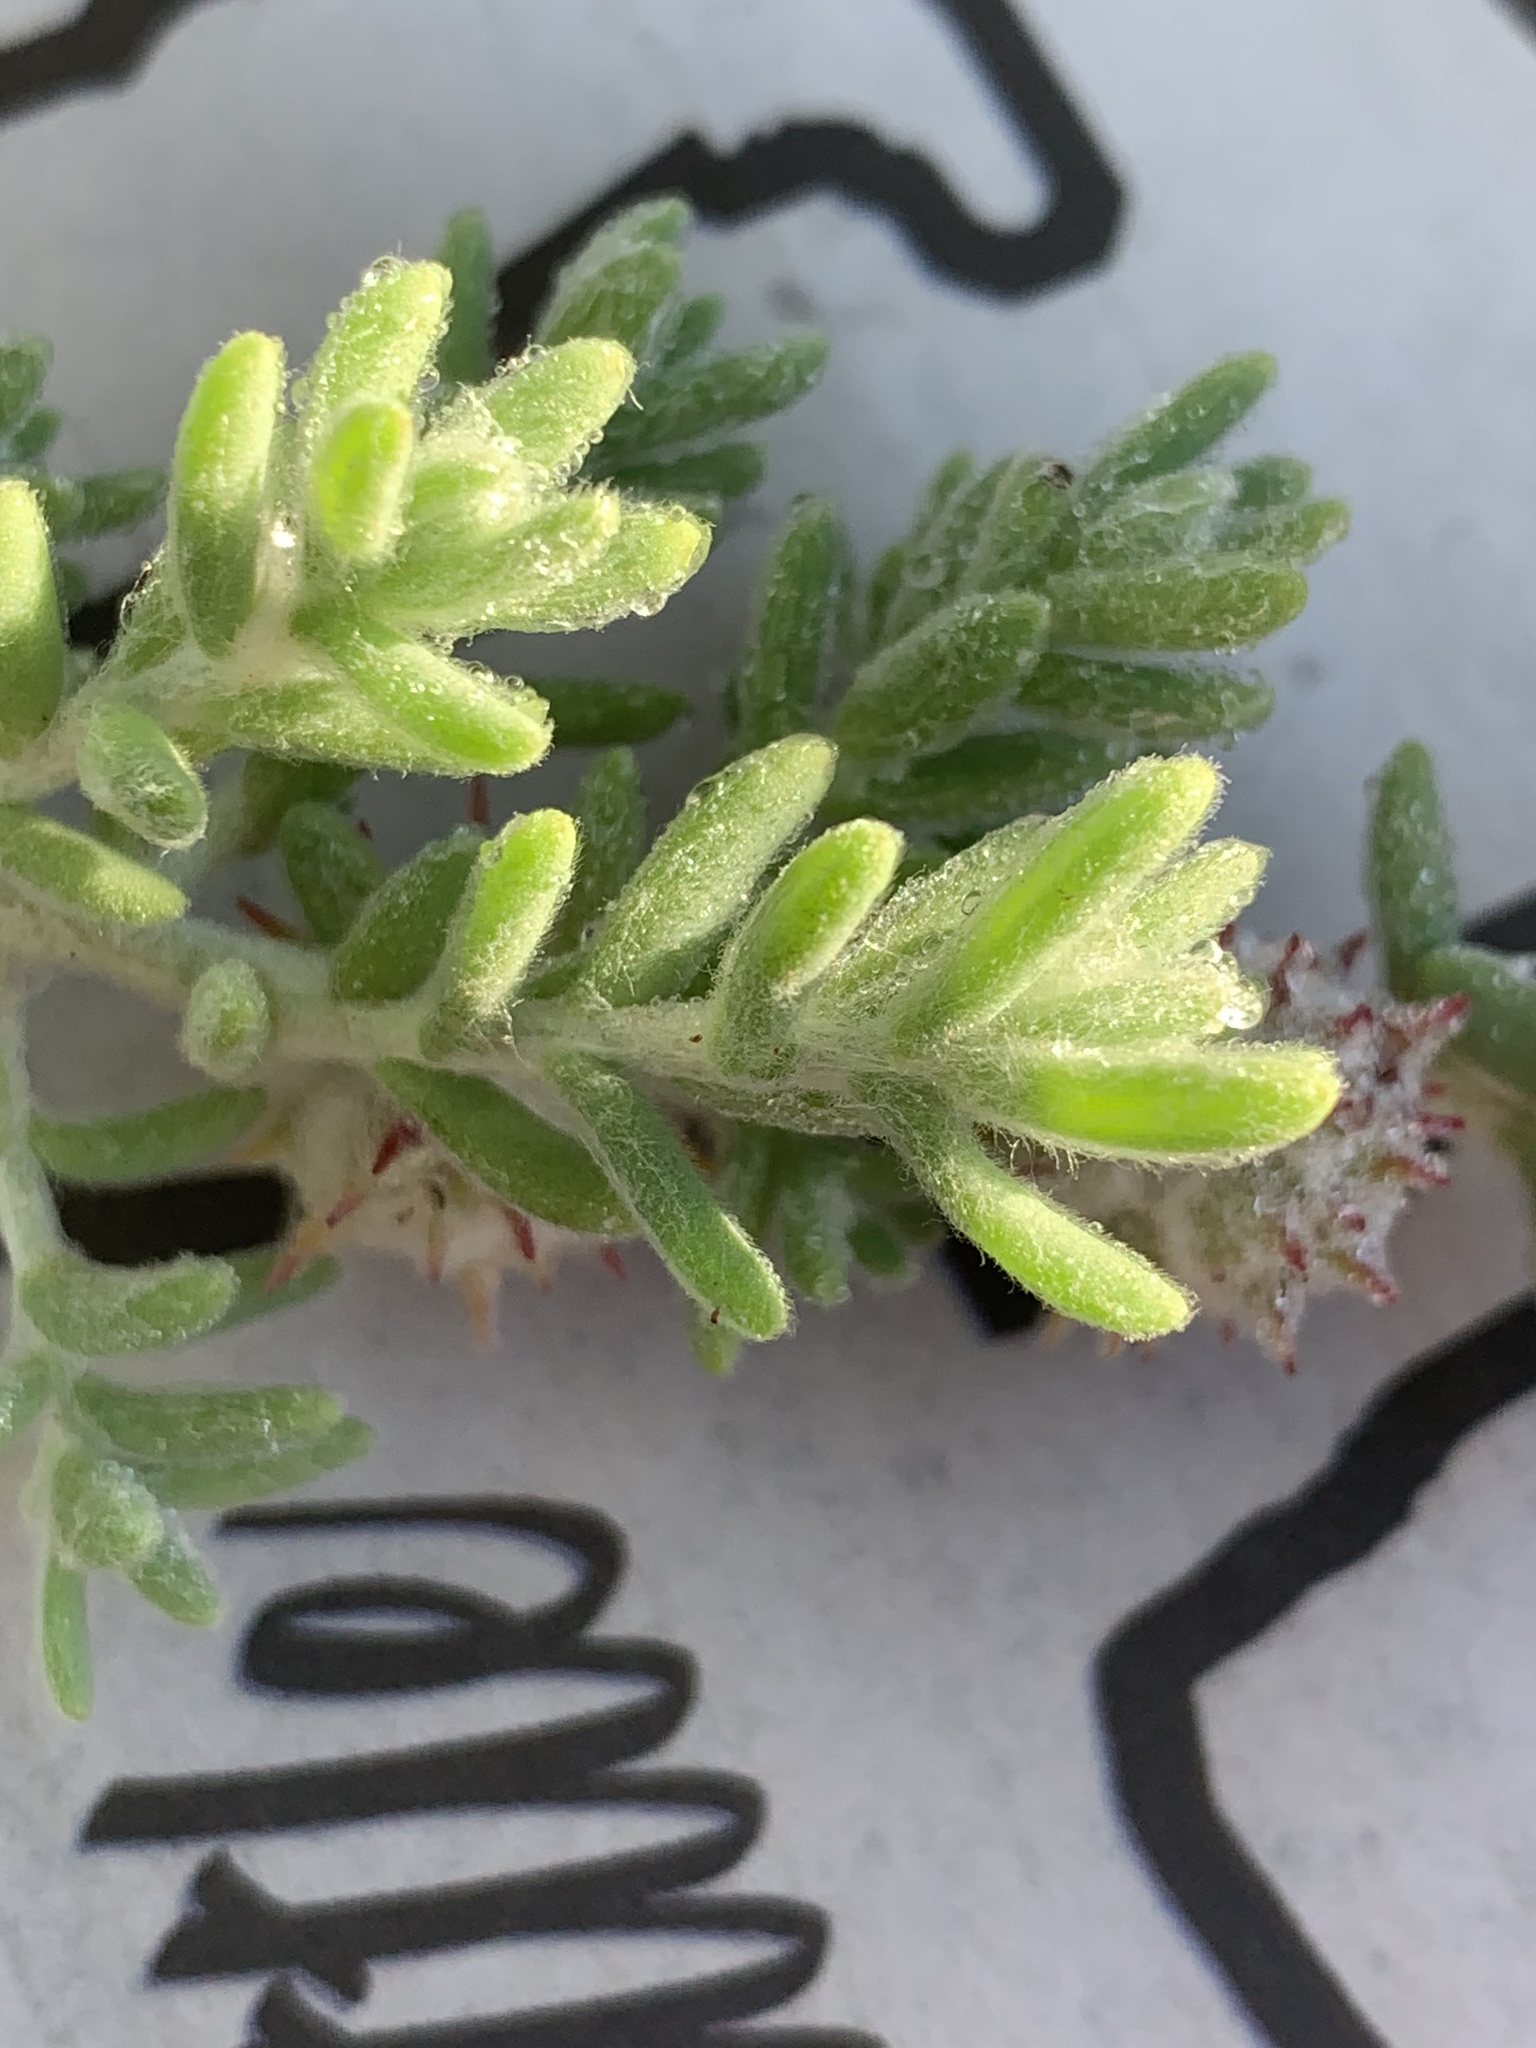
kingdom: Plantae
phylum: Tracheophyta
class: Magnoliopsida
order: Caryophyllales
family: Amaranthaceae
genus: Dissocarpus
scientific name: Dissocarpus paradoxus
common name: Bur-saltbush
